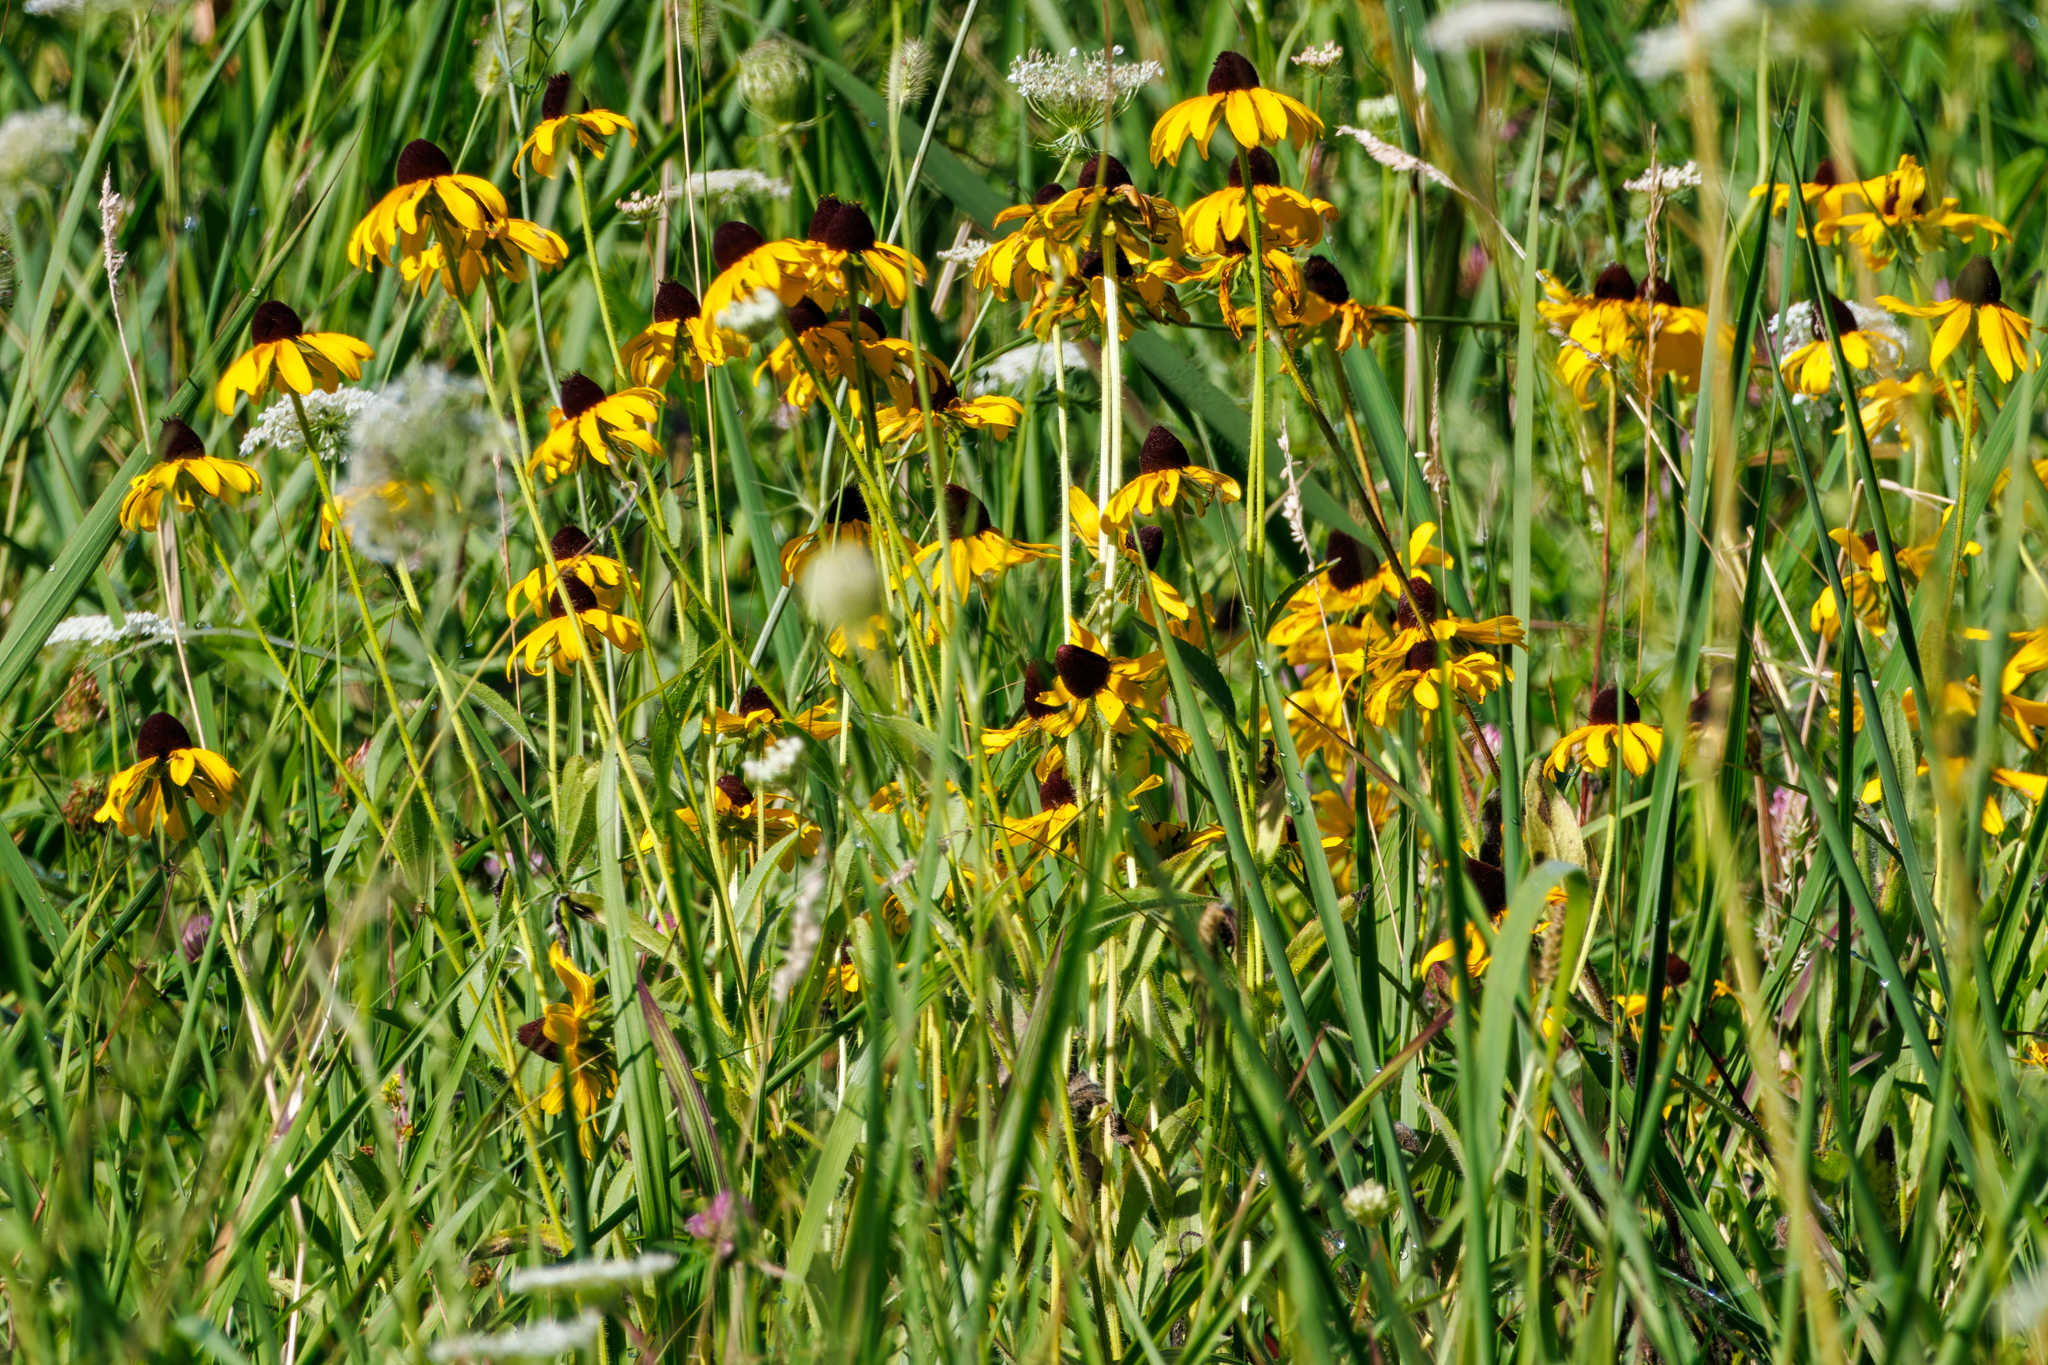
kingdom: Plantae
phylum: Tracheophyta
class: Magnoliopsida
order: Asterales
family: Asteraceae
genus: Rudbeckia
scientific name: Rudbeckia hirta
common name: Black-eyed-susan
